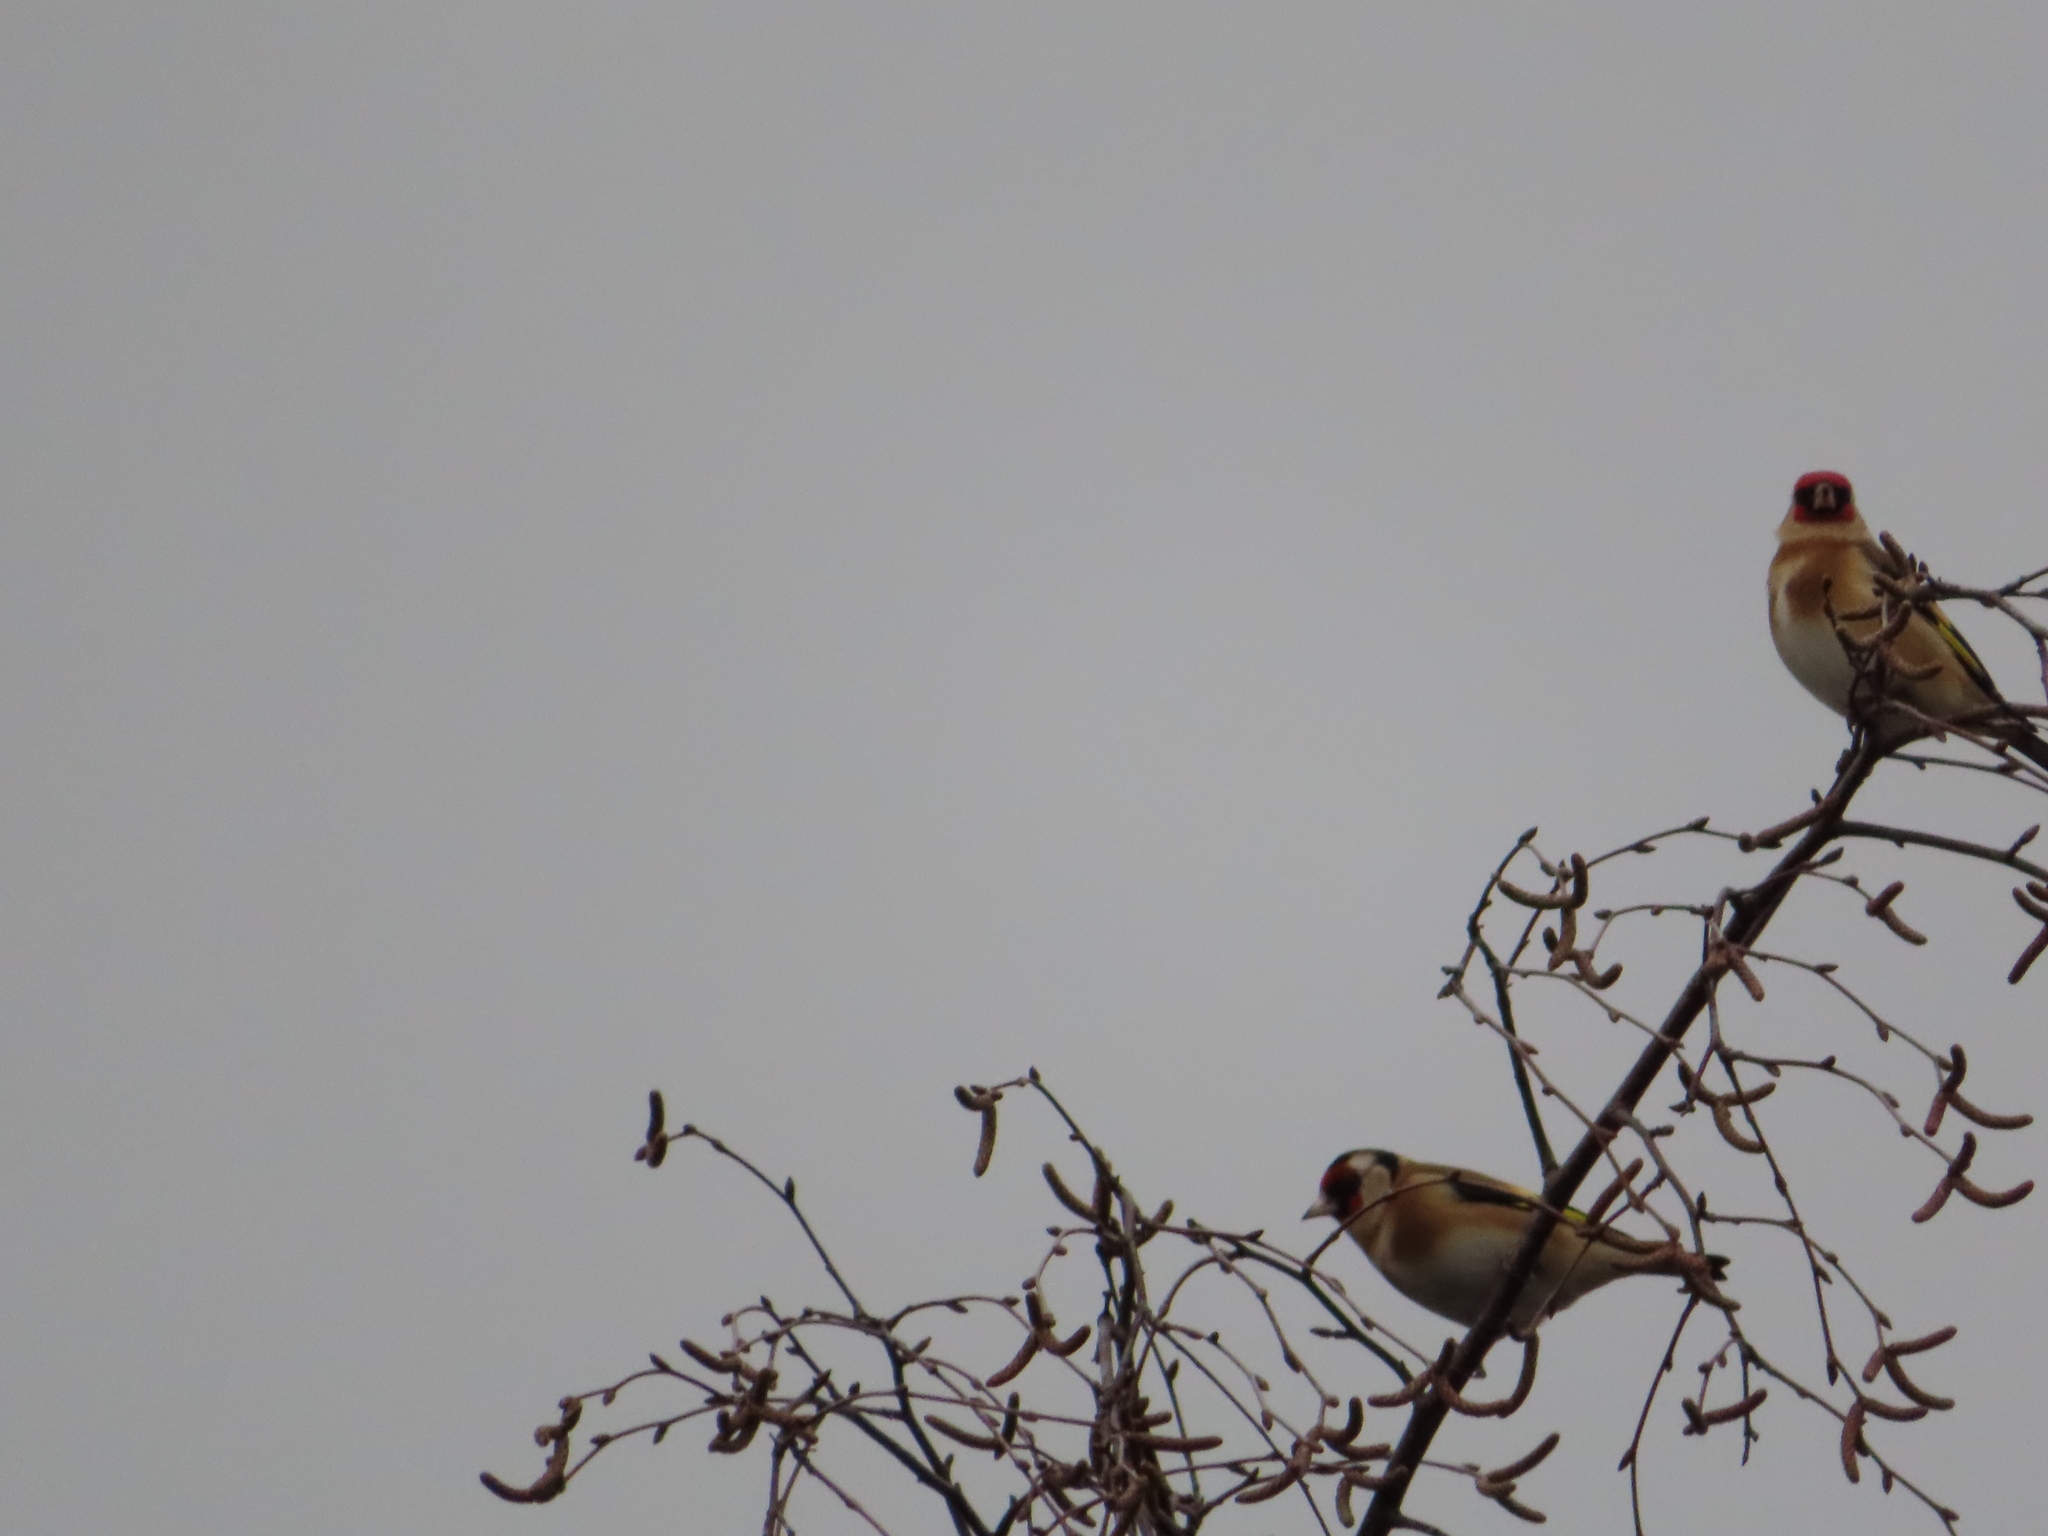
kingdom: Animalia
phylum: Chordata
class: Aves
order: Passeriformes
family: Fringillidae
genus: Carduelis
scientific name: Carduelis carduelis
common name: European goldfinch
